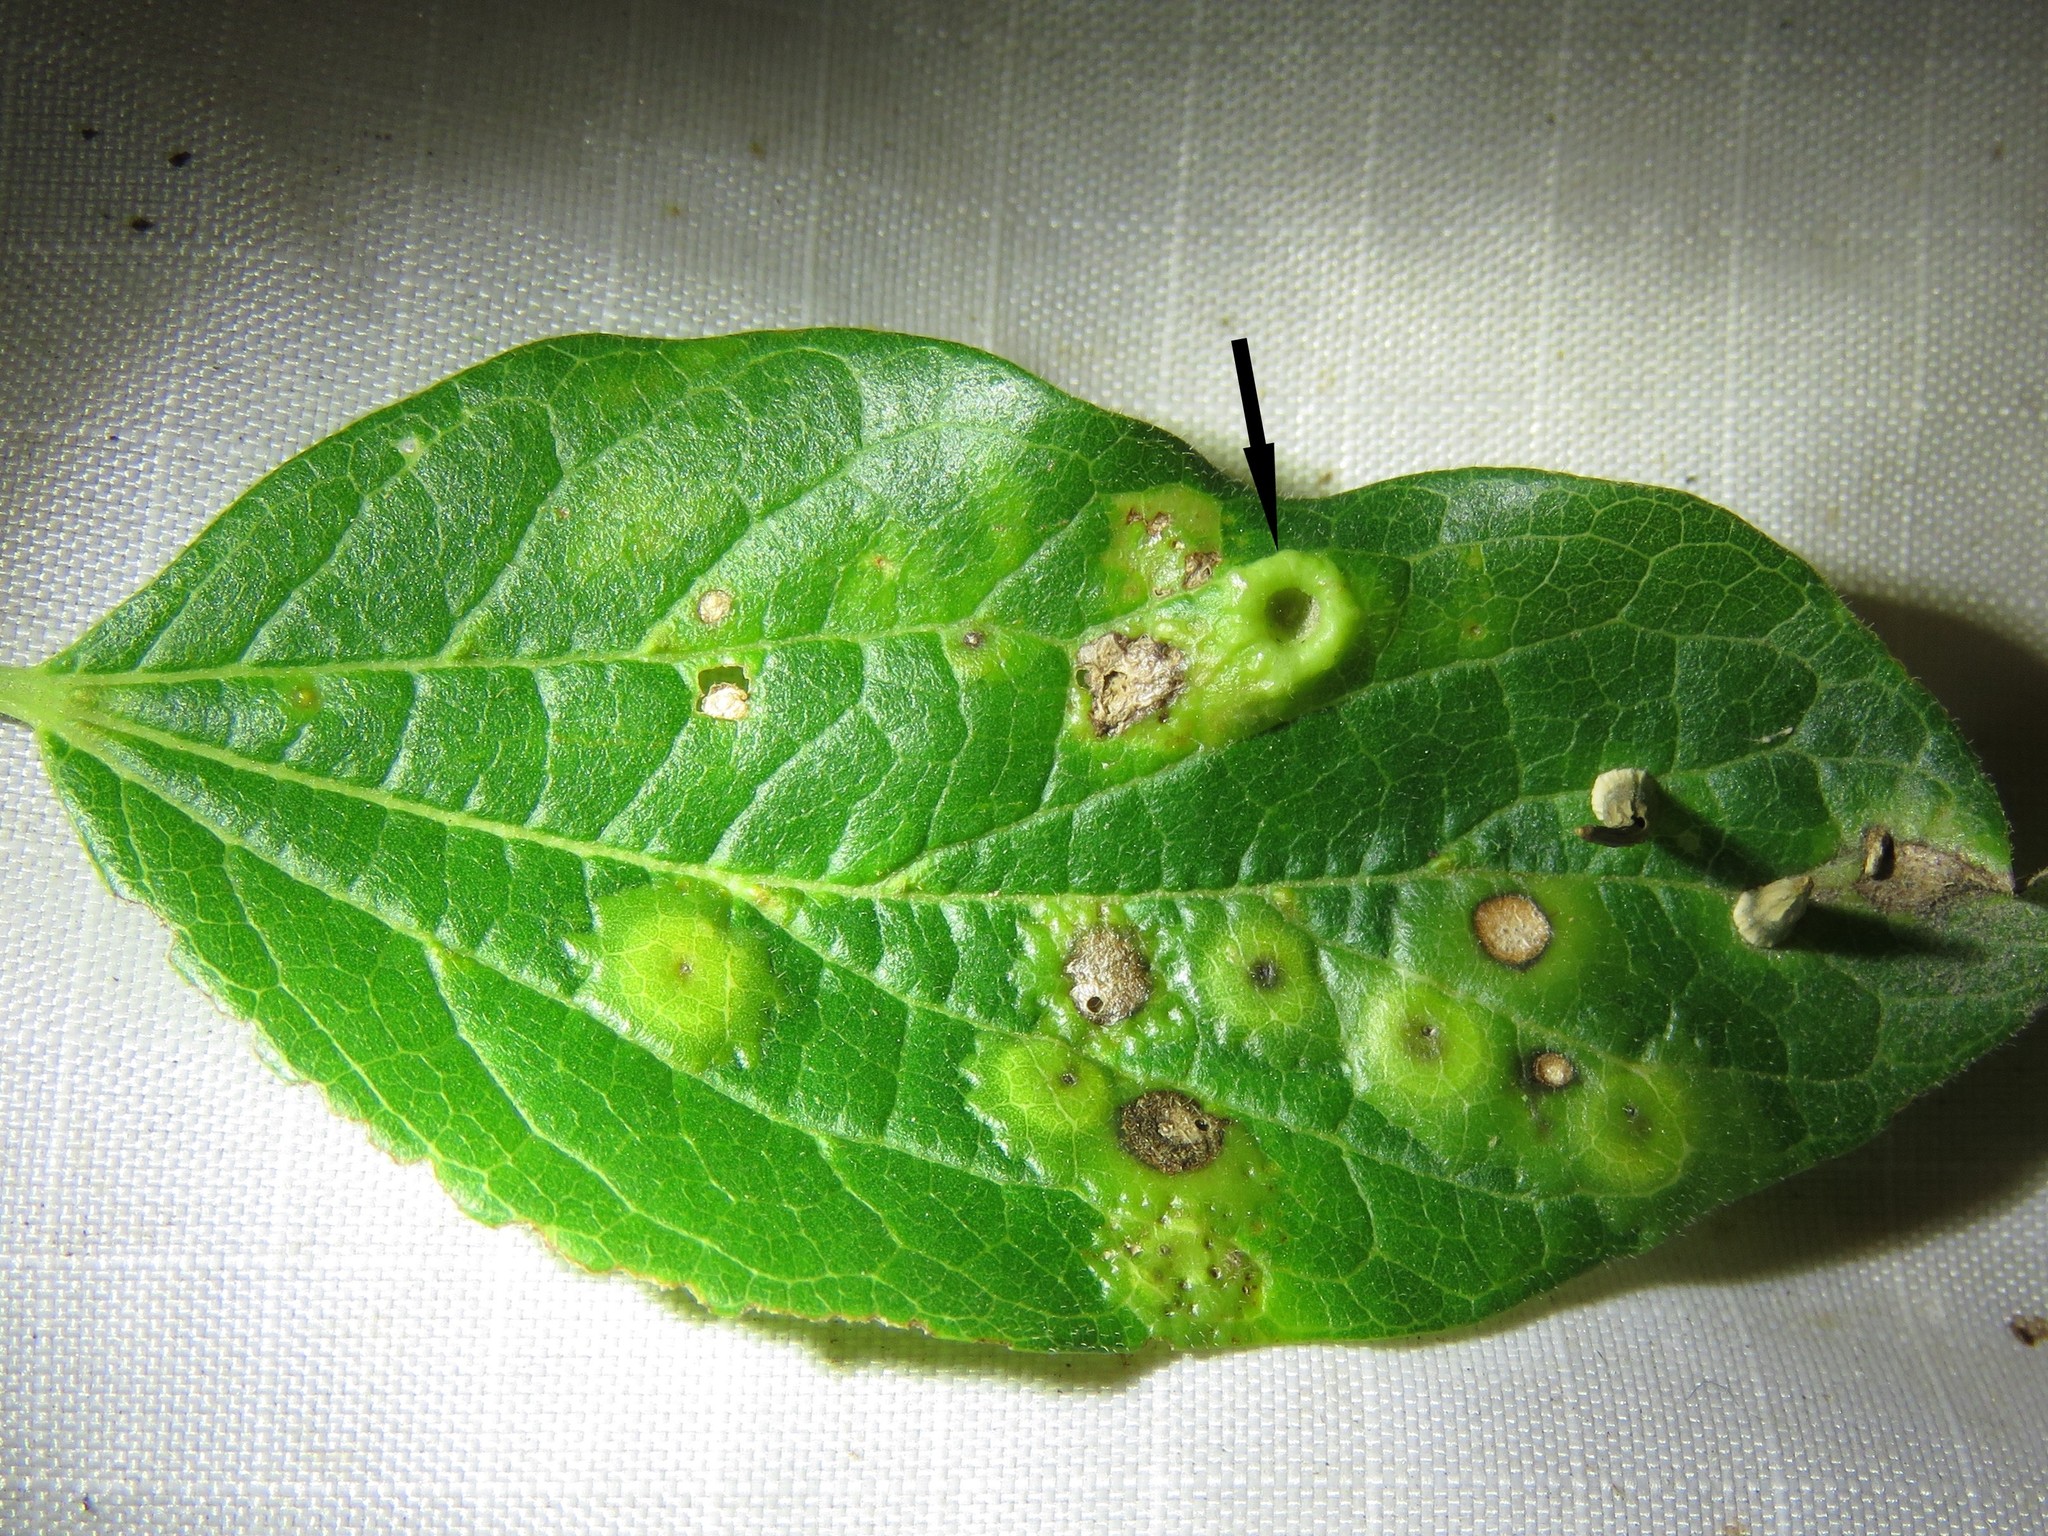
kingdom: Animalia
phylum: Arthropoda
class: Insecta
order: Hemiptera
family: Aphalaridae
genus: Pachypsylla
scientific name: Pachypsylla celtidismamma
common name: Hackberry nipplegall psyllid
